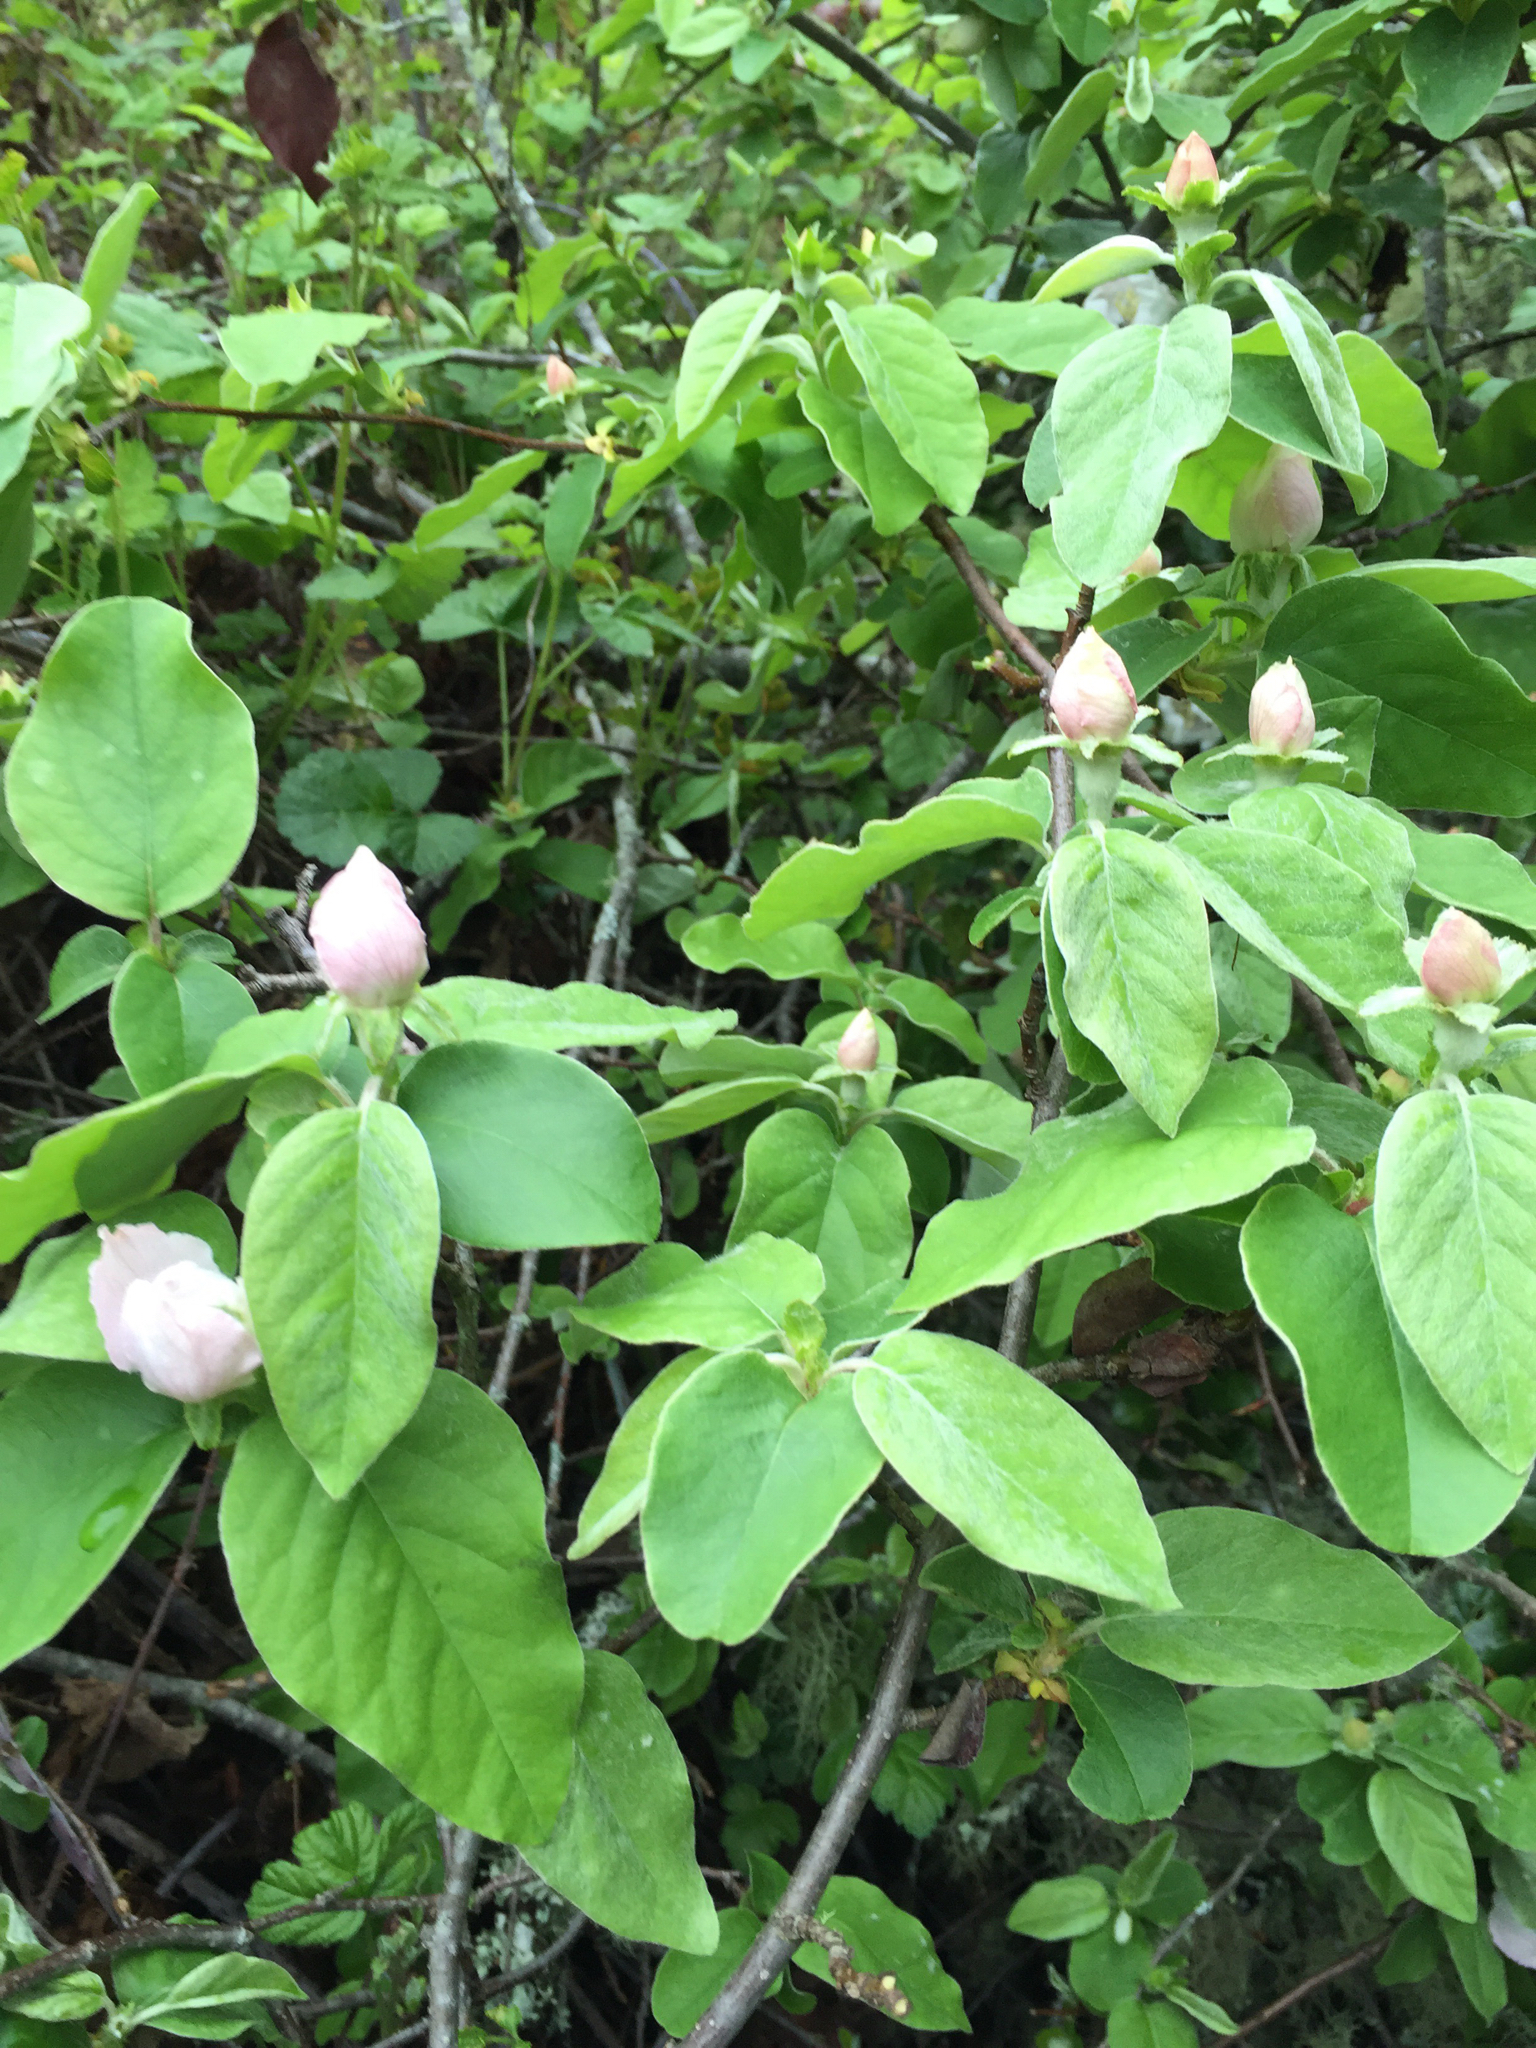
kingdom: Plantae
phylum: Tracheophyta
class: Magnoliopsida
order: Rosales
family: Rosaceae
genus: Cydonia
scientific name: Cydonia oblonga
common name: Quince
